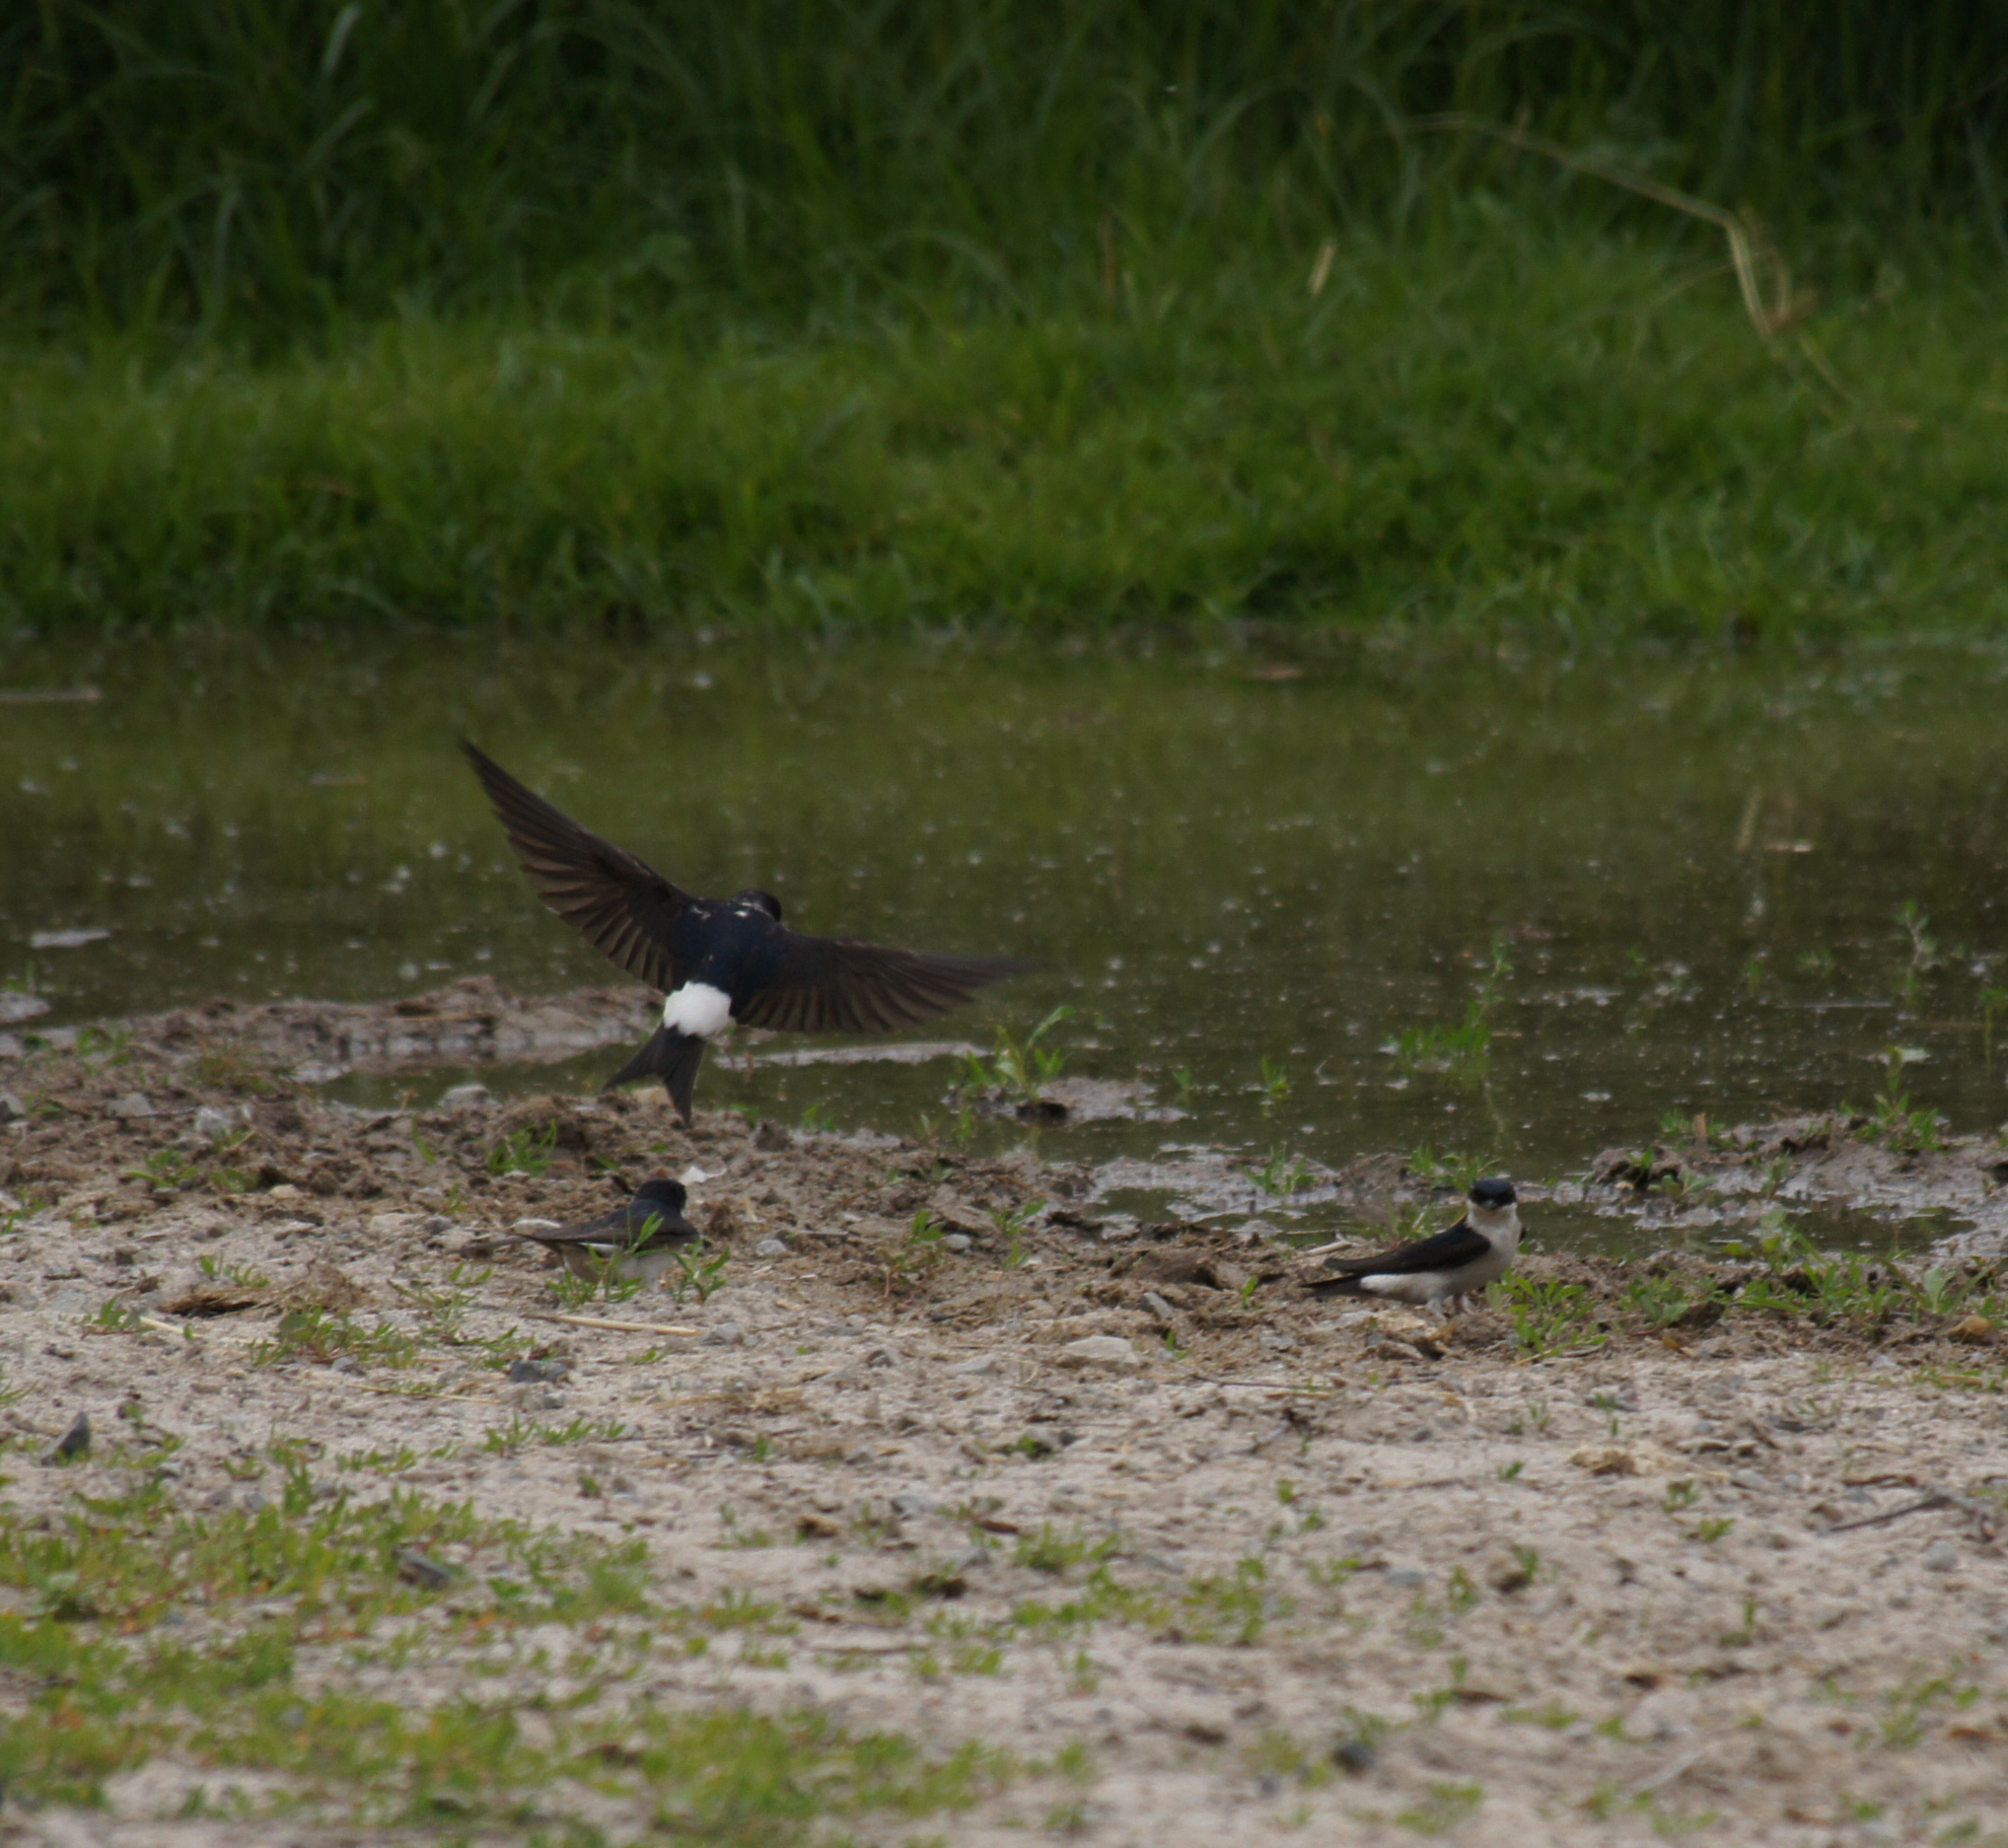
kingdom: Animalia
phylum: Chordata
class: Aves
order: Passeriformes
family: Hirundinidae
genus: Delichon
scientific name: Delichon urbicum
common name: Common house martin
